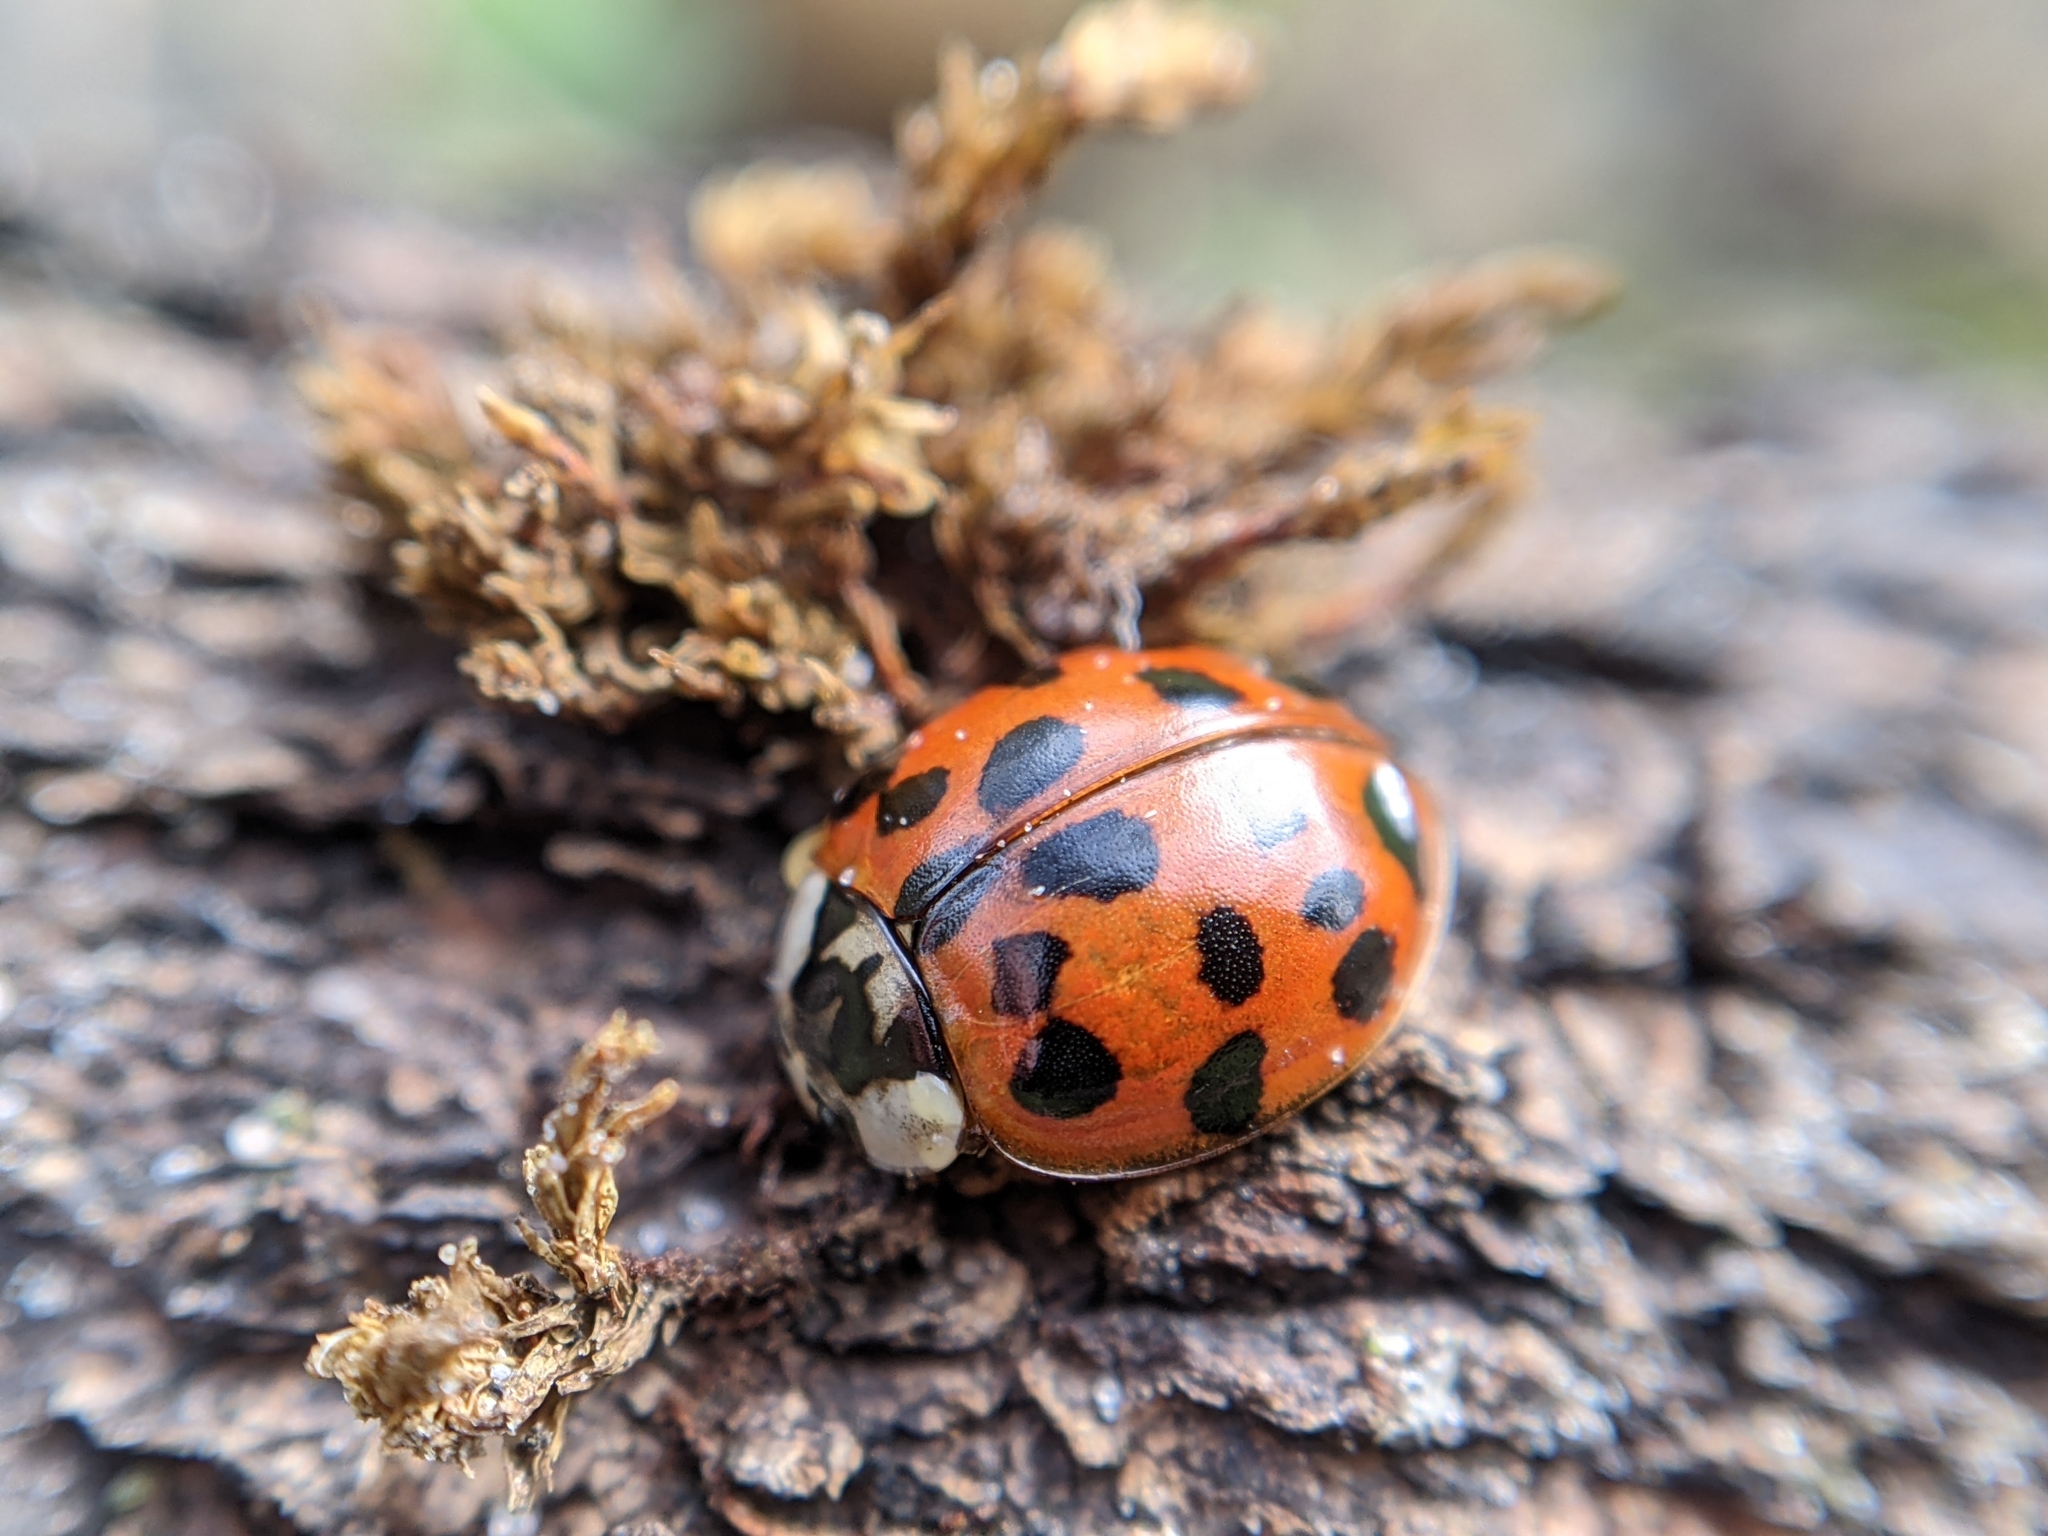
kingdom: Animalia
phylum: Arthropoda
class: Insecta
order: Coleoptera
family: Coccinellidae
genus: Harmonia
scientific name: Harmonia axyridis
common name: Harlequin ladybird
